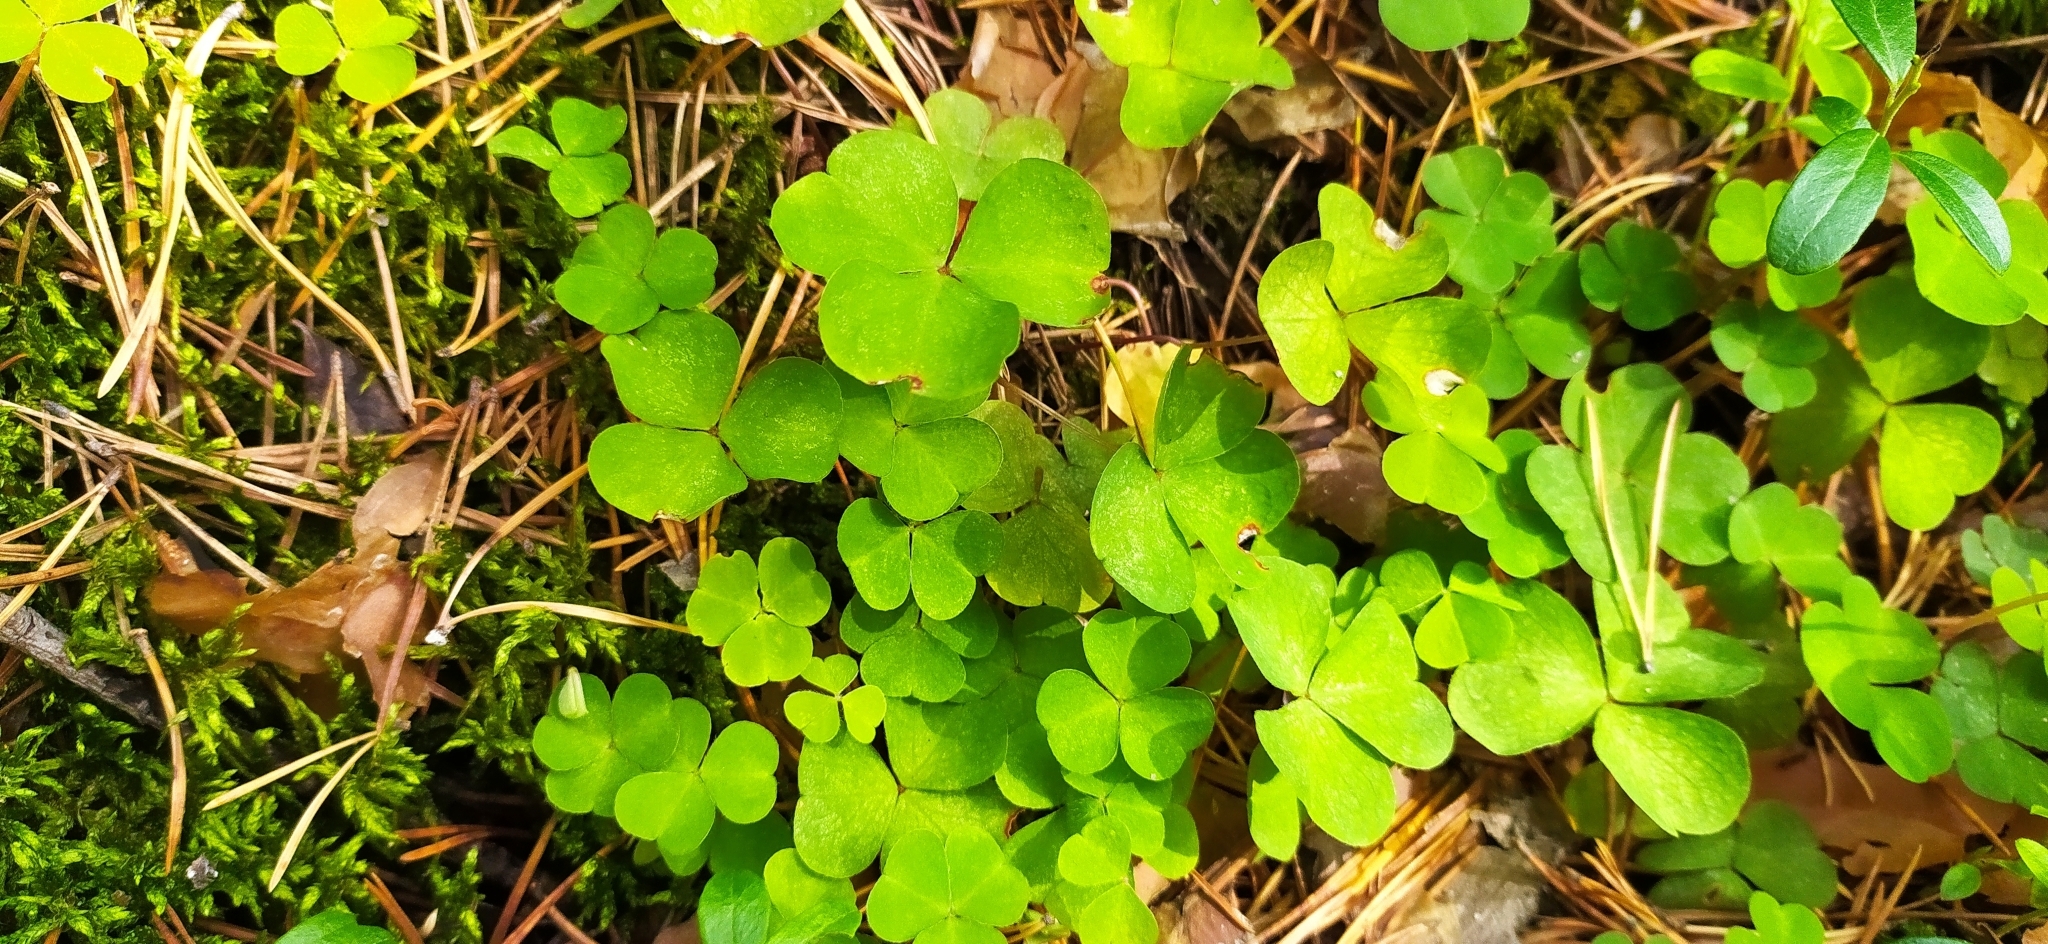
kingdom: Plantae
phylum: Tracheophyta
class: Magnoliopsida
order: Oxalidales
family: Oxalidaceae
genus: Oxalis
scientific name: Oxalis acetosella
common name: Wood-sorrel
